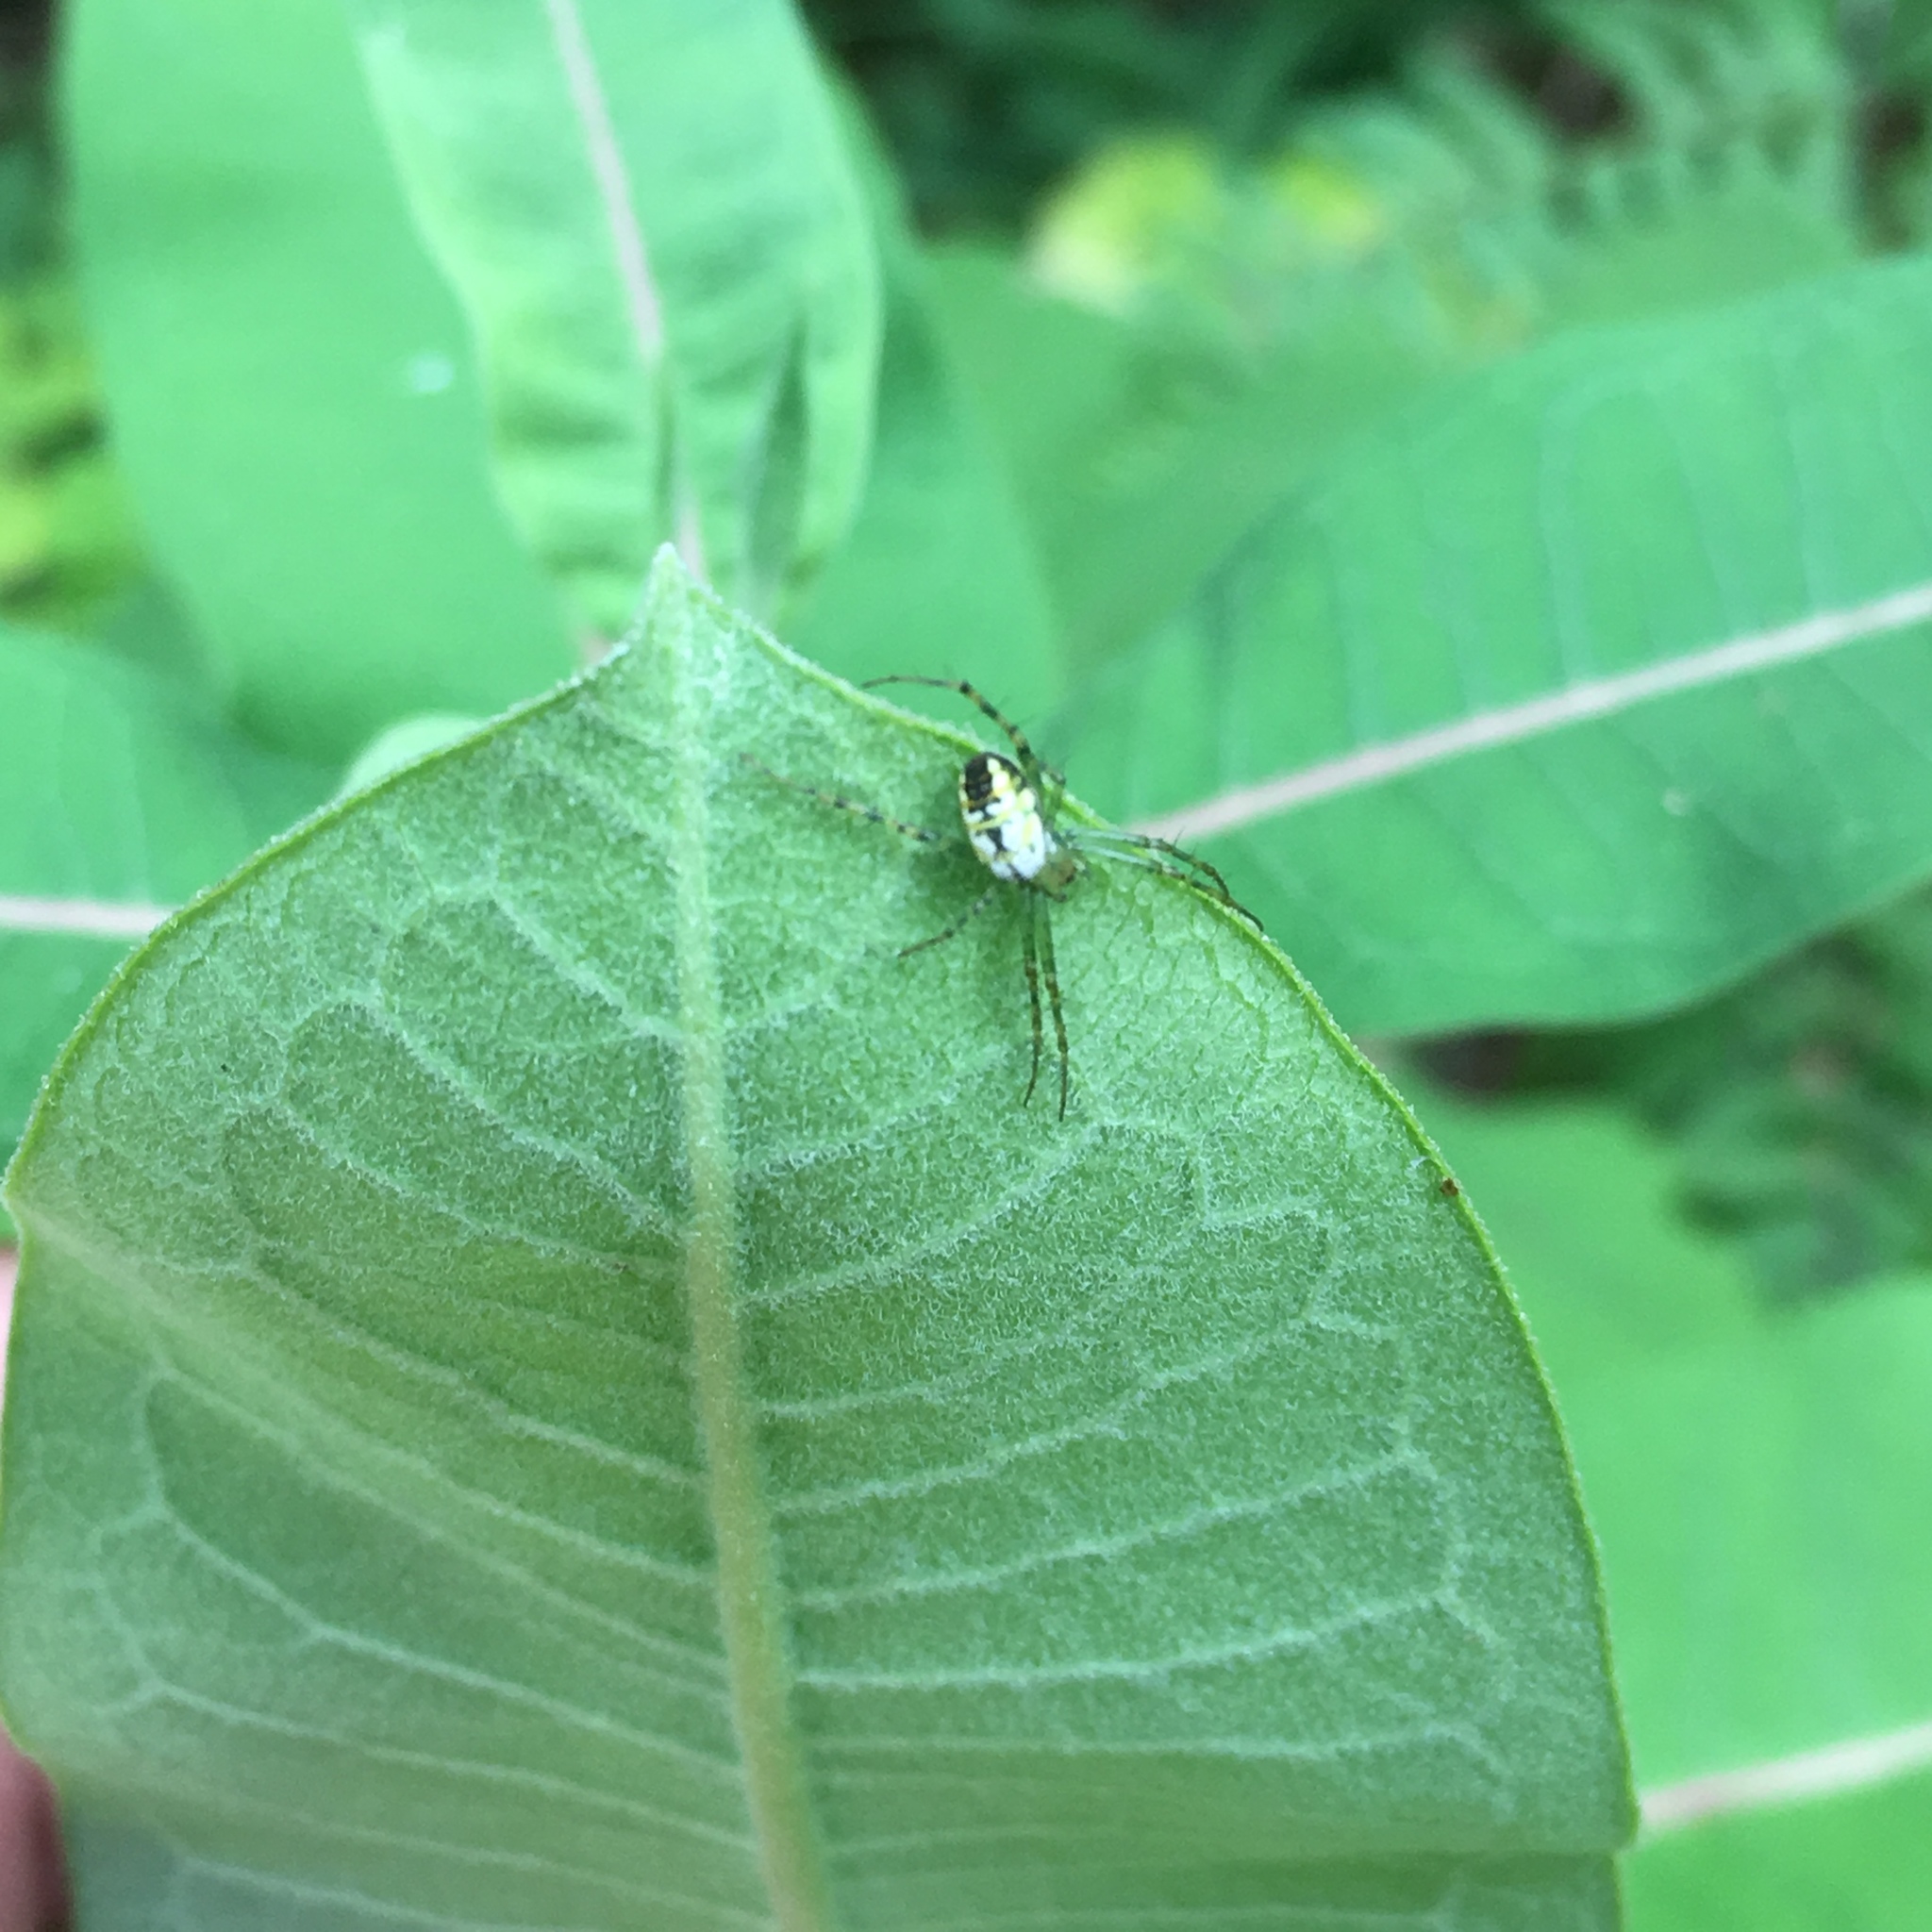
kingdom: Animalia
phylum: Arthropoda
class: Arachnida
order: Araneae
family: Araneidae
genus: Mangora
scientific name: Mangora maculata
